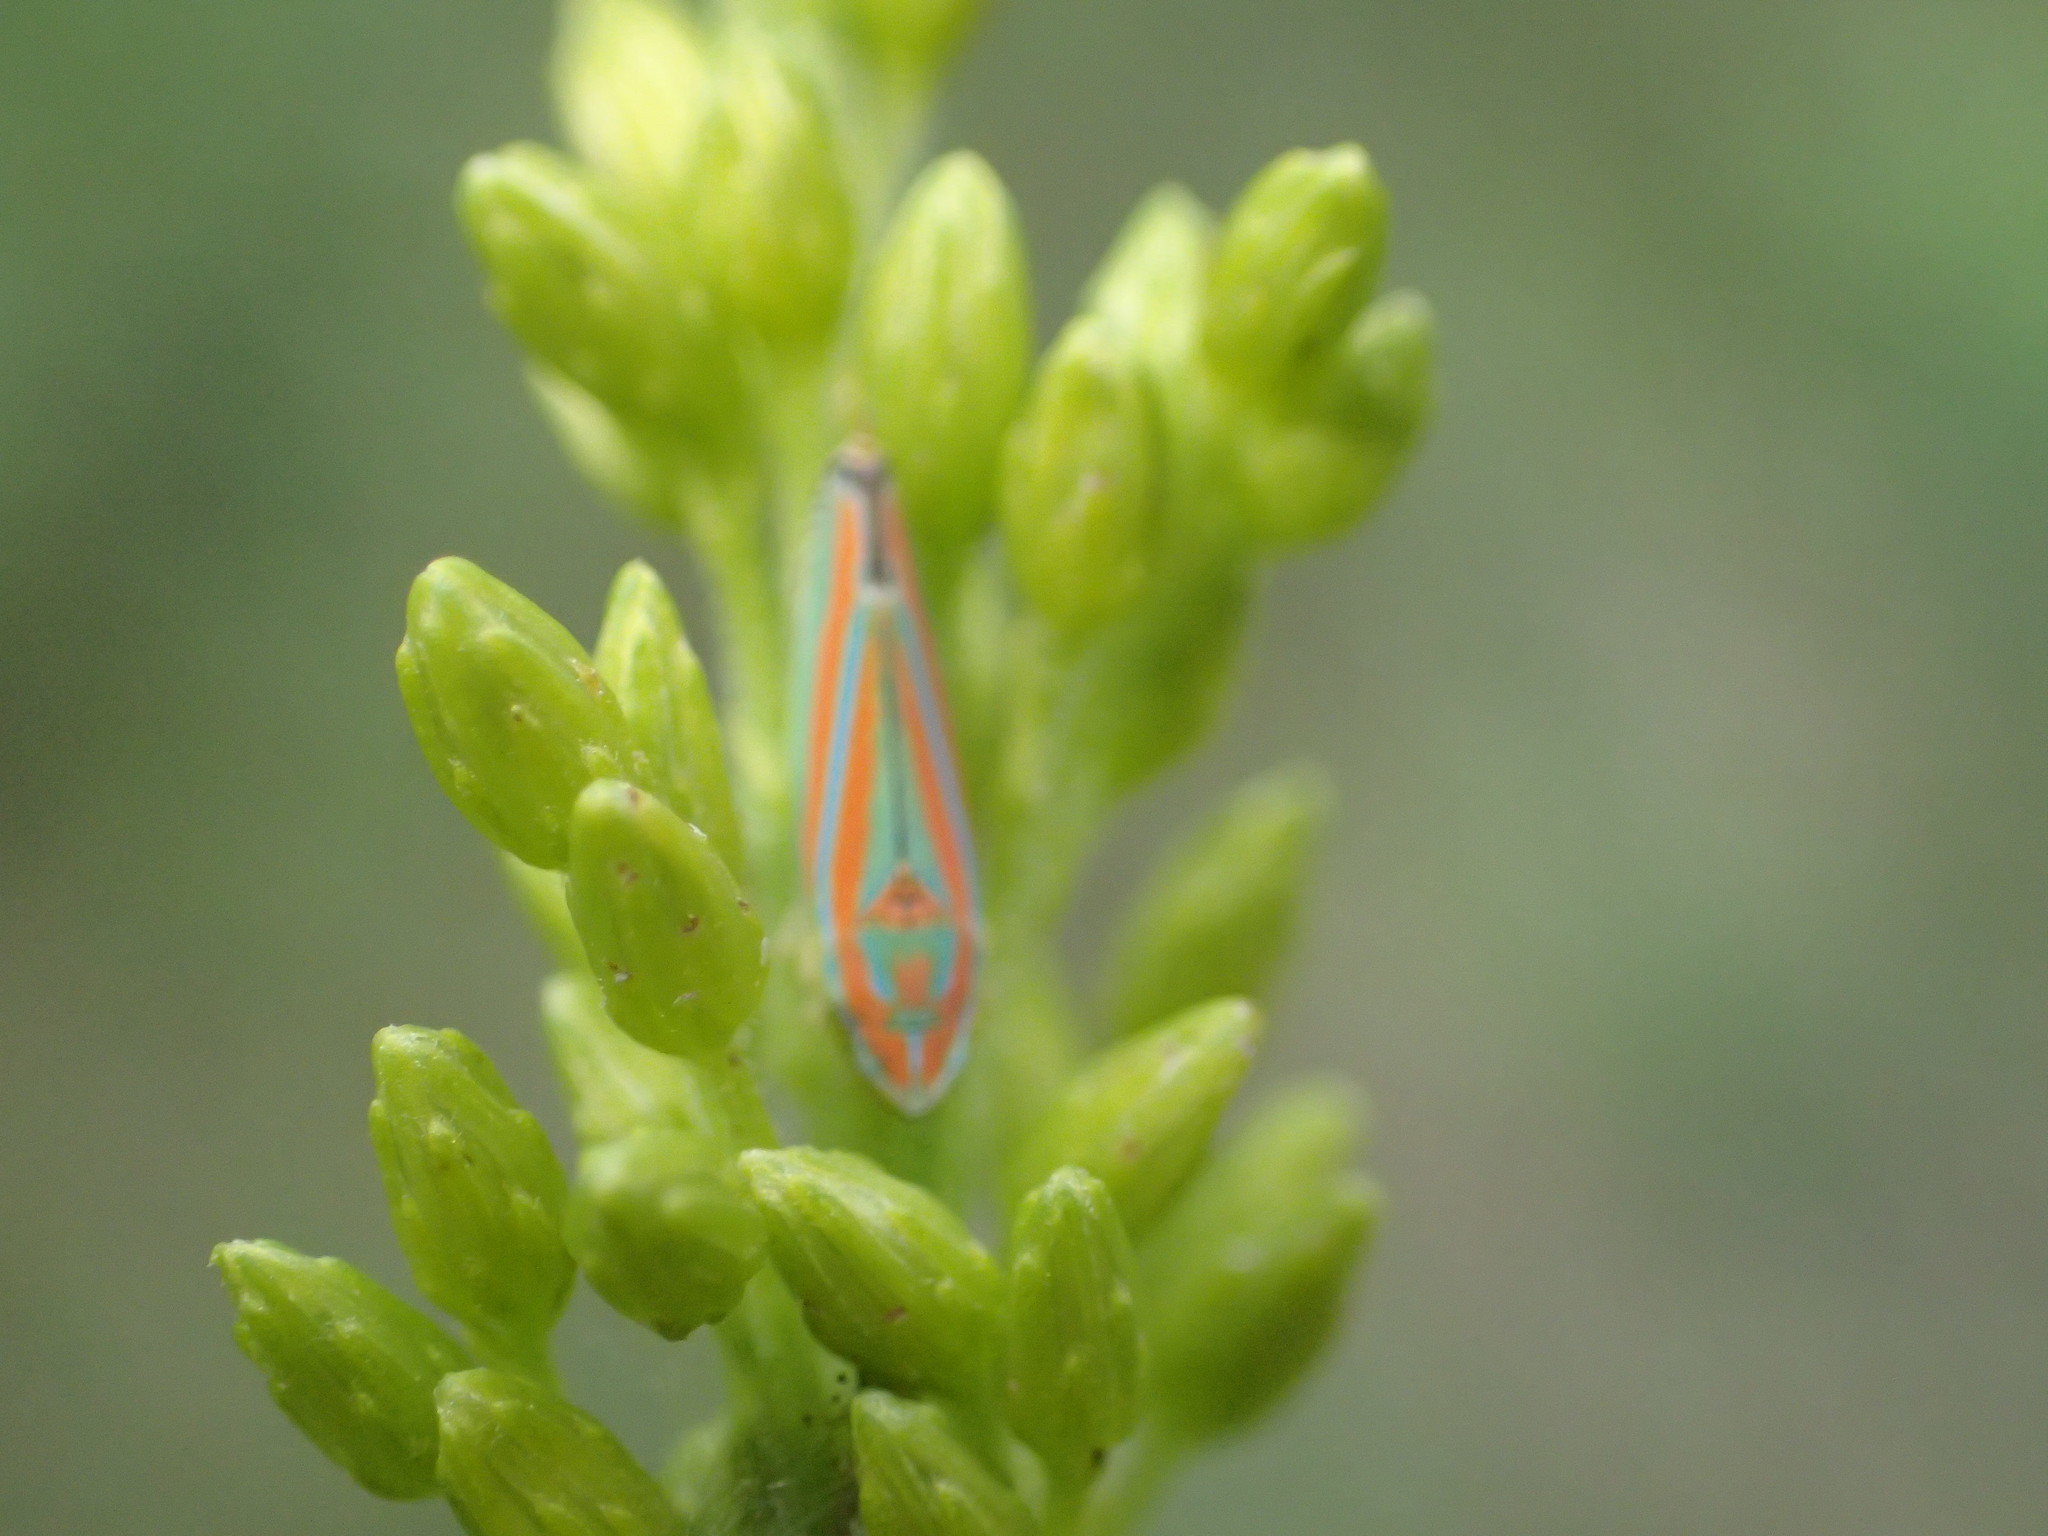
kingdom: Animalia
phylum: Arthropoda
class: Insecta
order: Hemiptera
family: Cicadellidae
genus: Graphocephala
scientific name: Graphocephala versuta
